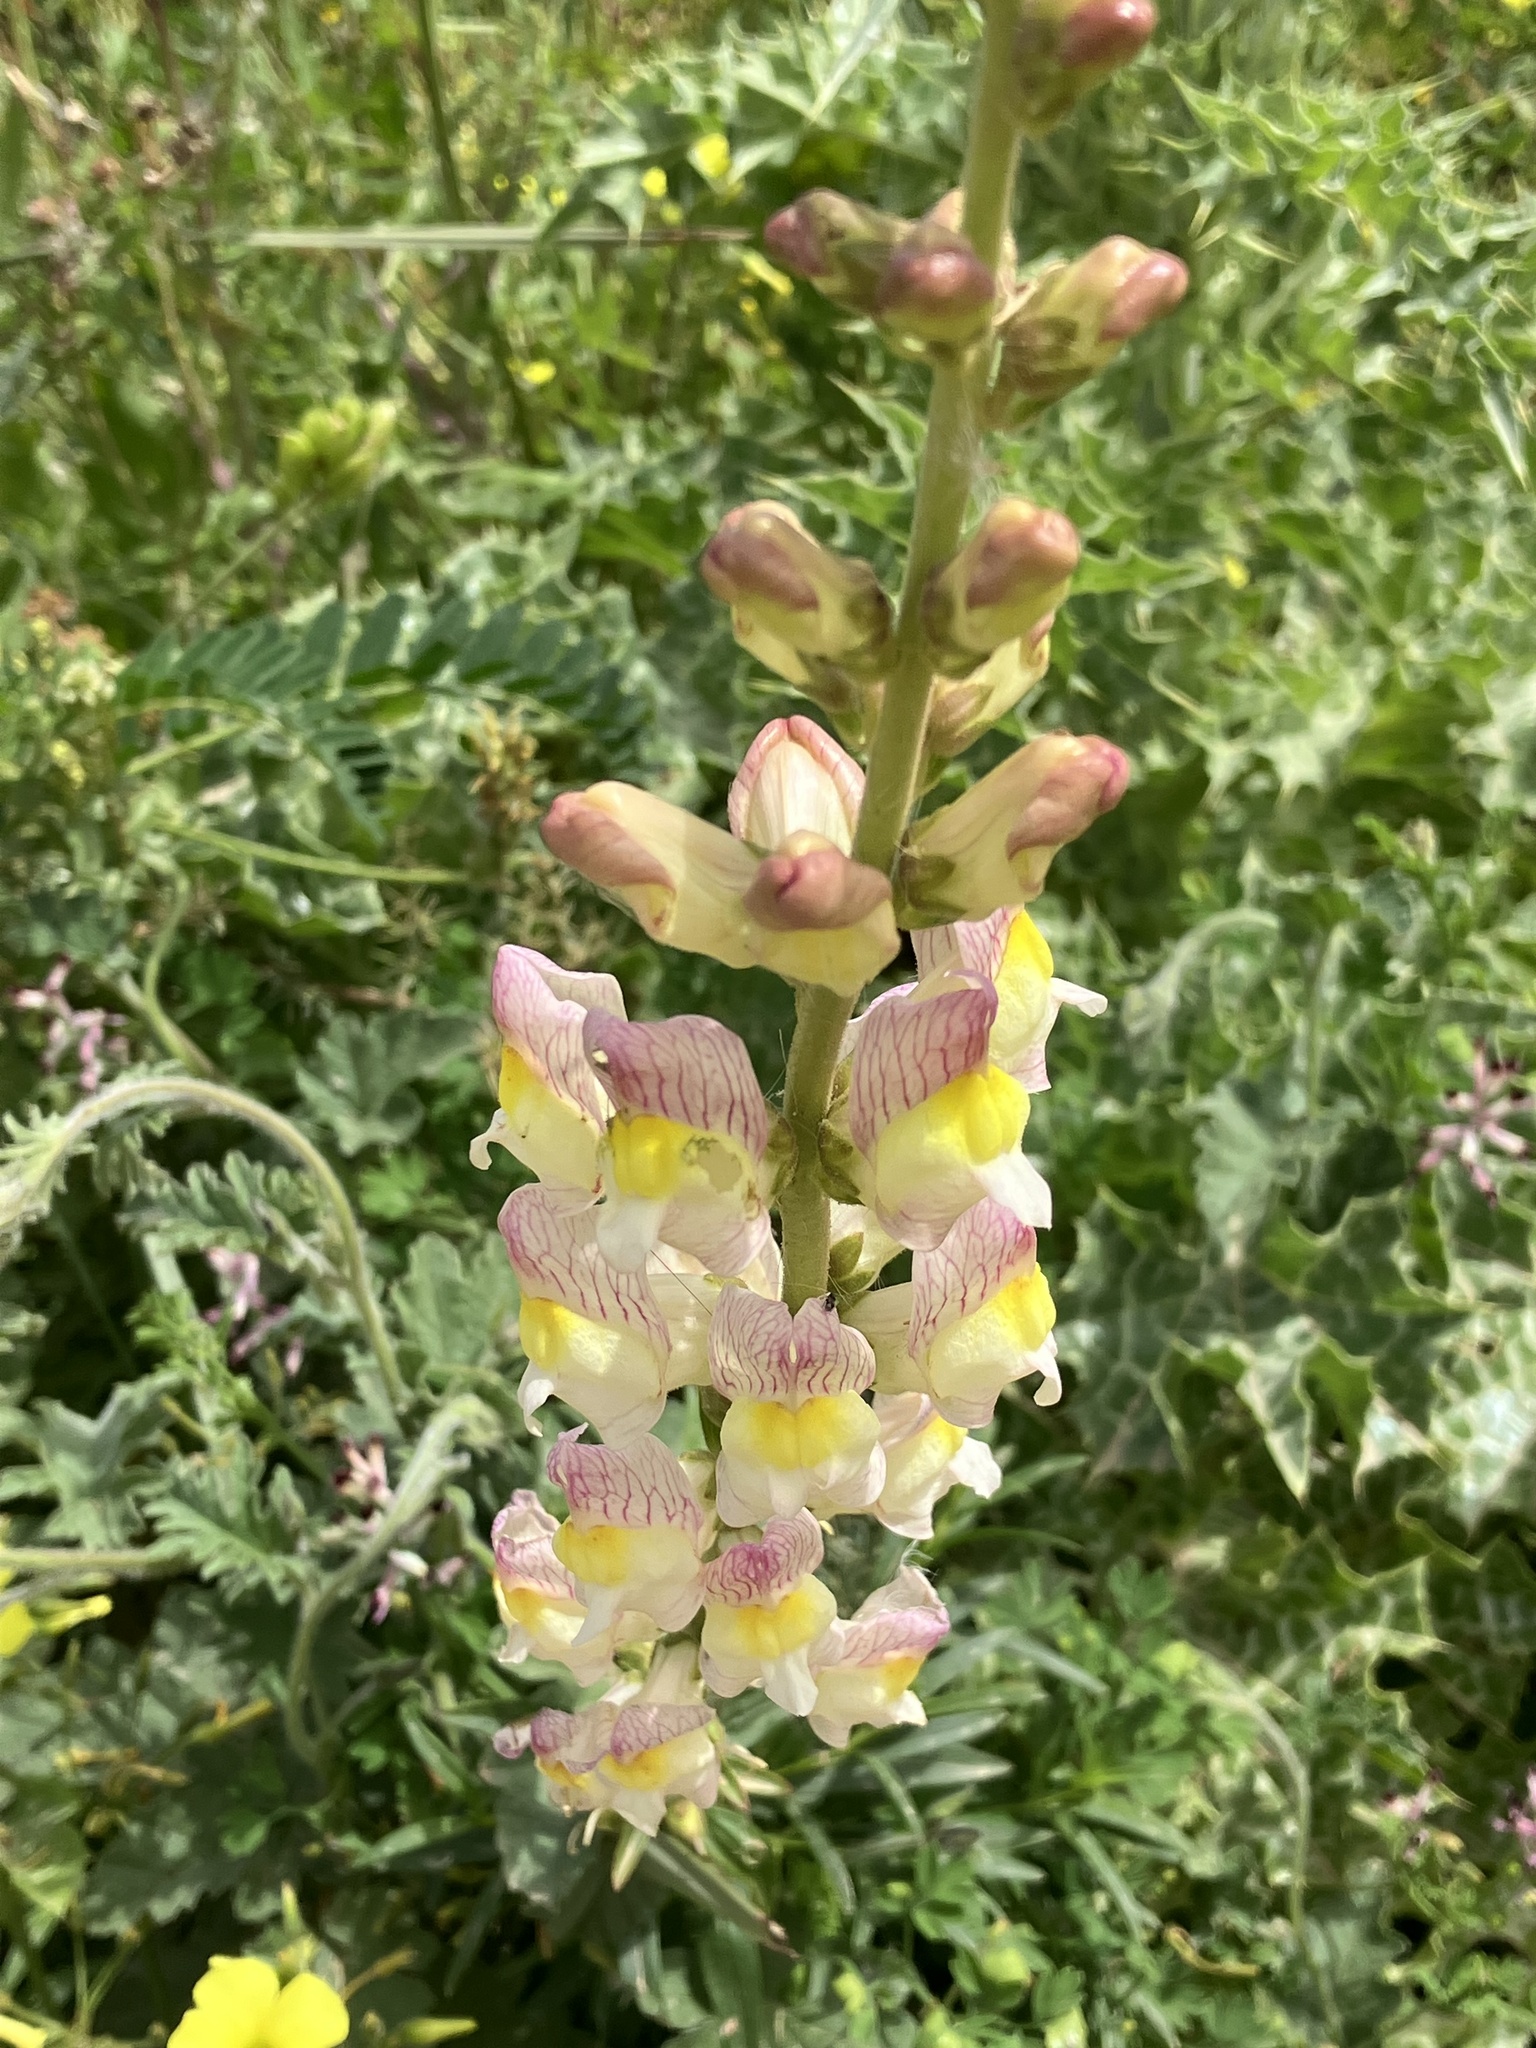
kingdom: Plantae
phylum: Tracheophyta
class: Magnoliopsida
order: Lamiales
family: Plantaginaceae
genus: Antirrhinum
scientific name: Antirrhinum siculum
